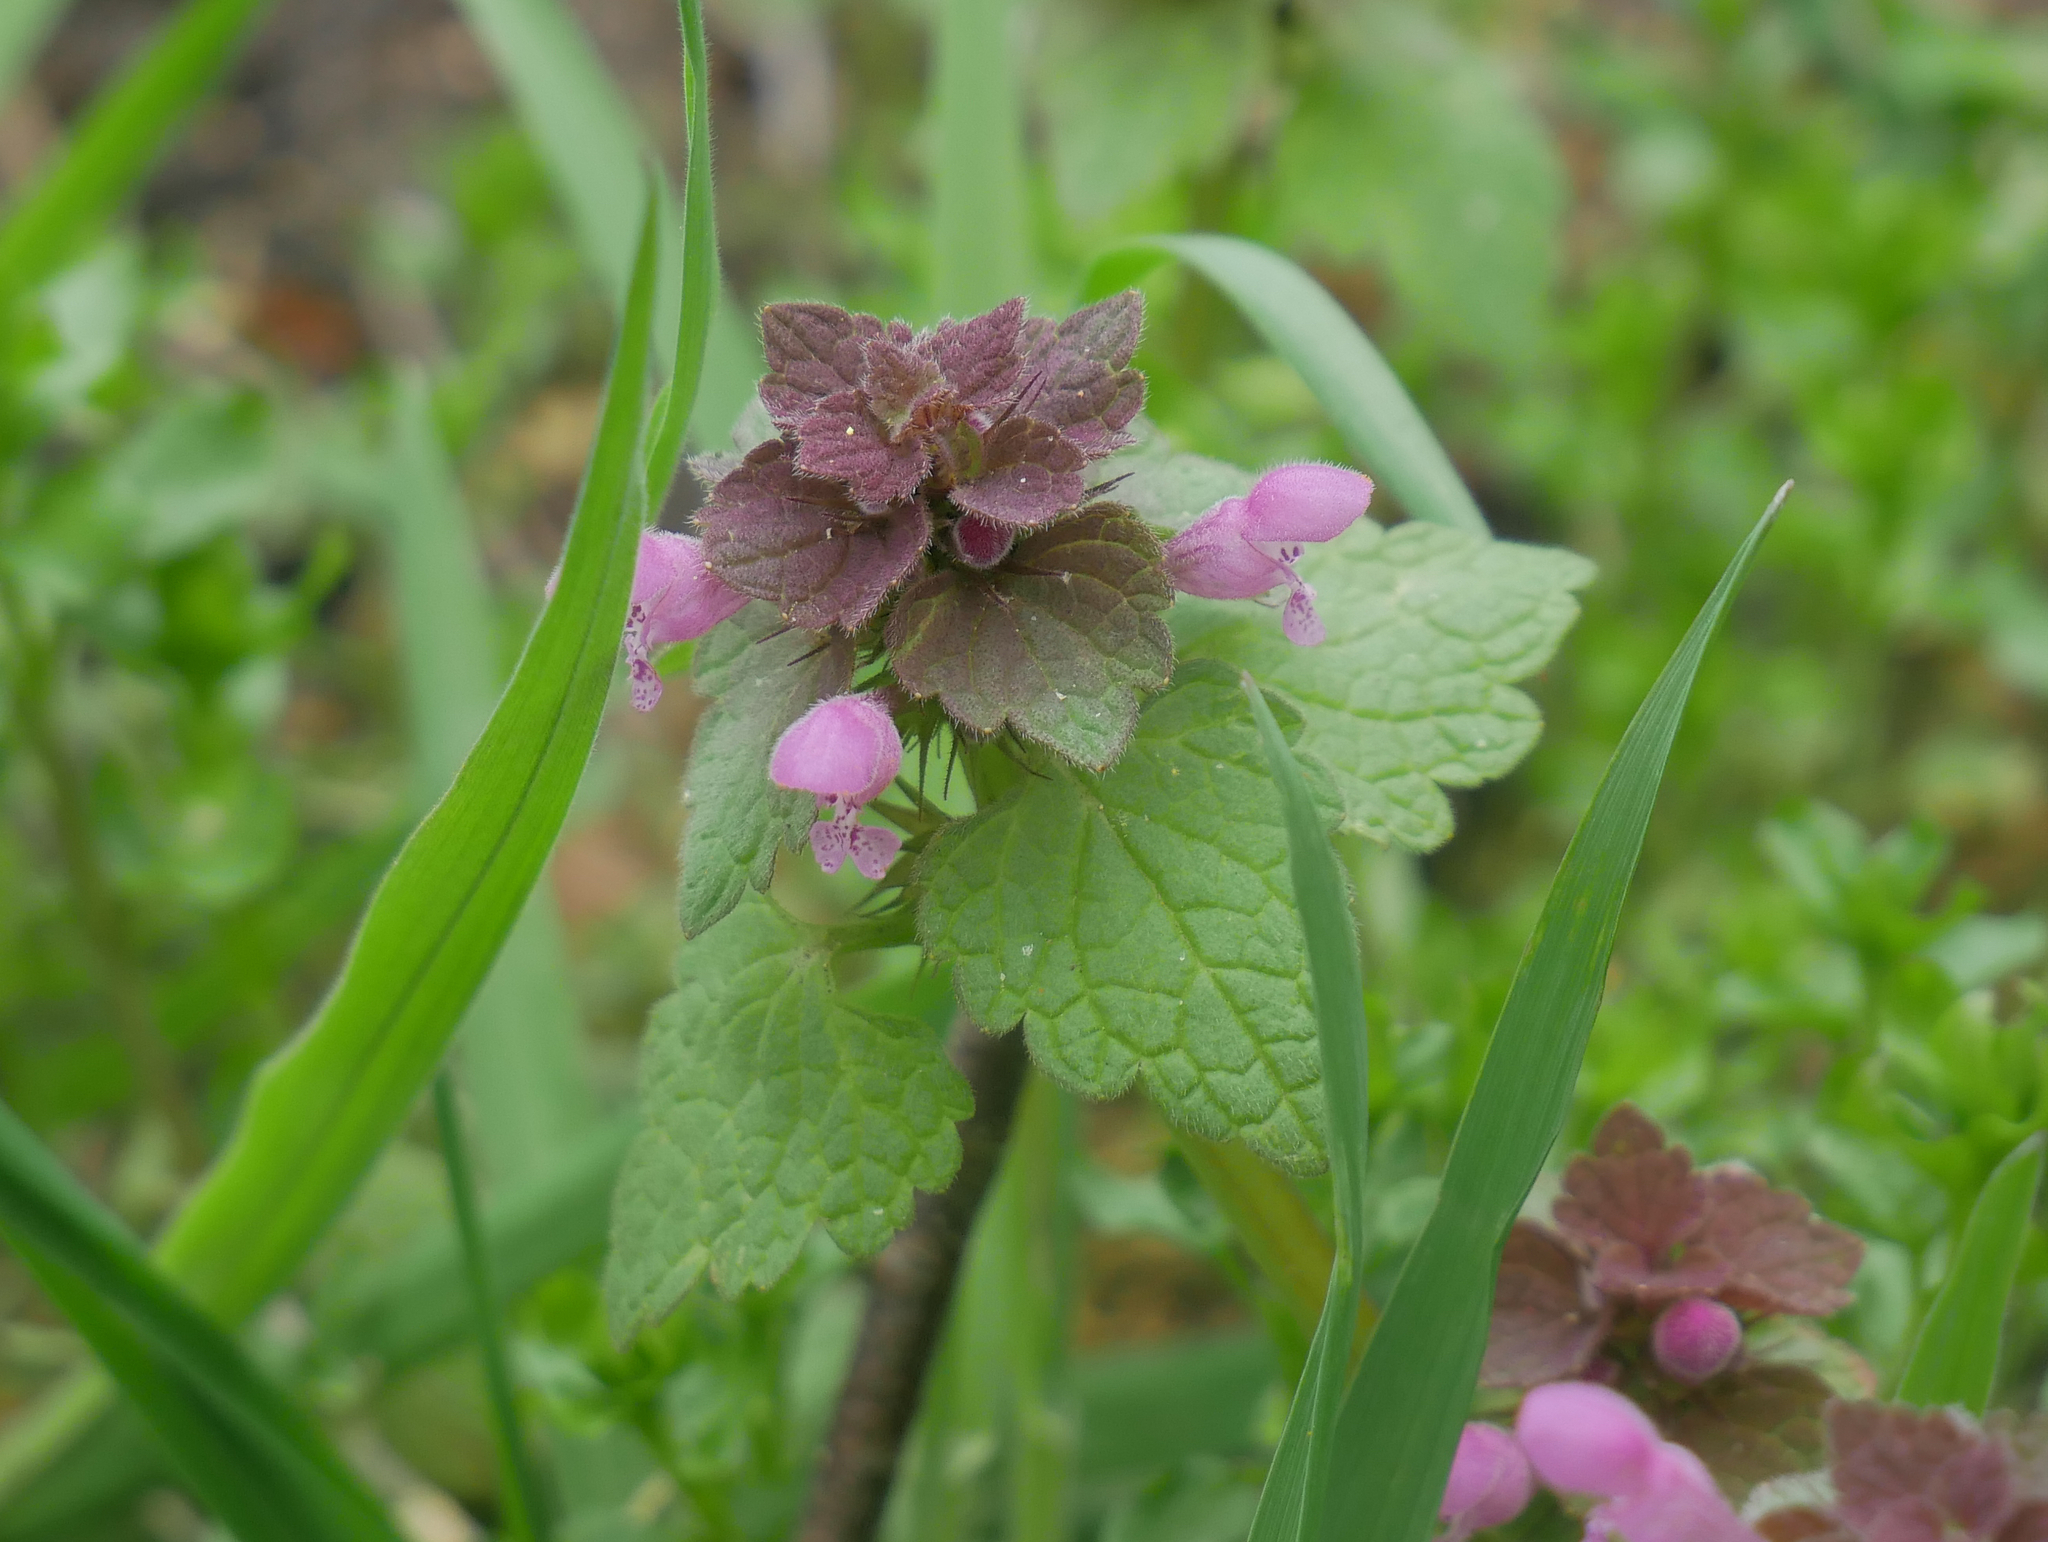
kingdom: Plantae
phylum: Tracheophyta
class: Magnoliopsida
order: Lamiales
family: Lamiaceae
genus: Lamium
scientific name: Lamium purpureum
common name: Red dead-nettle
